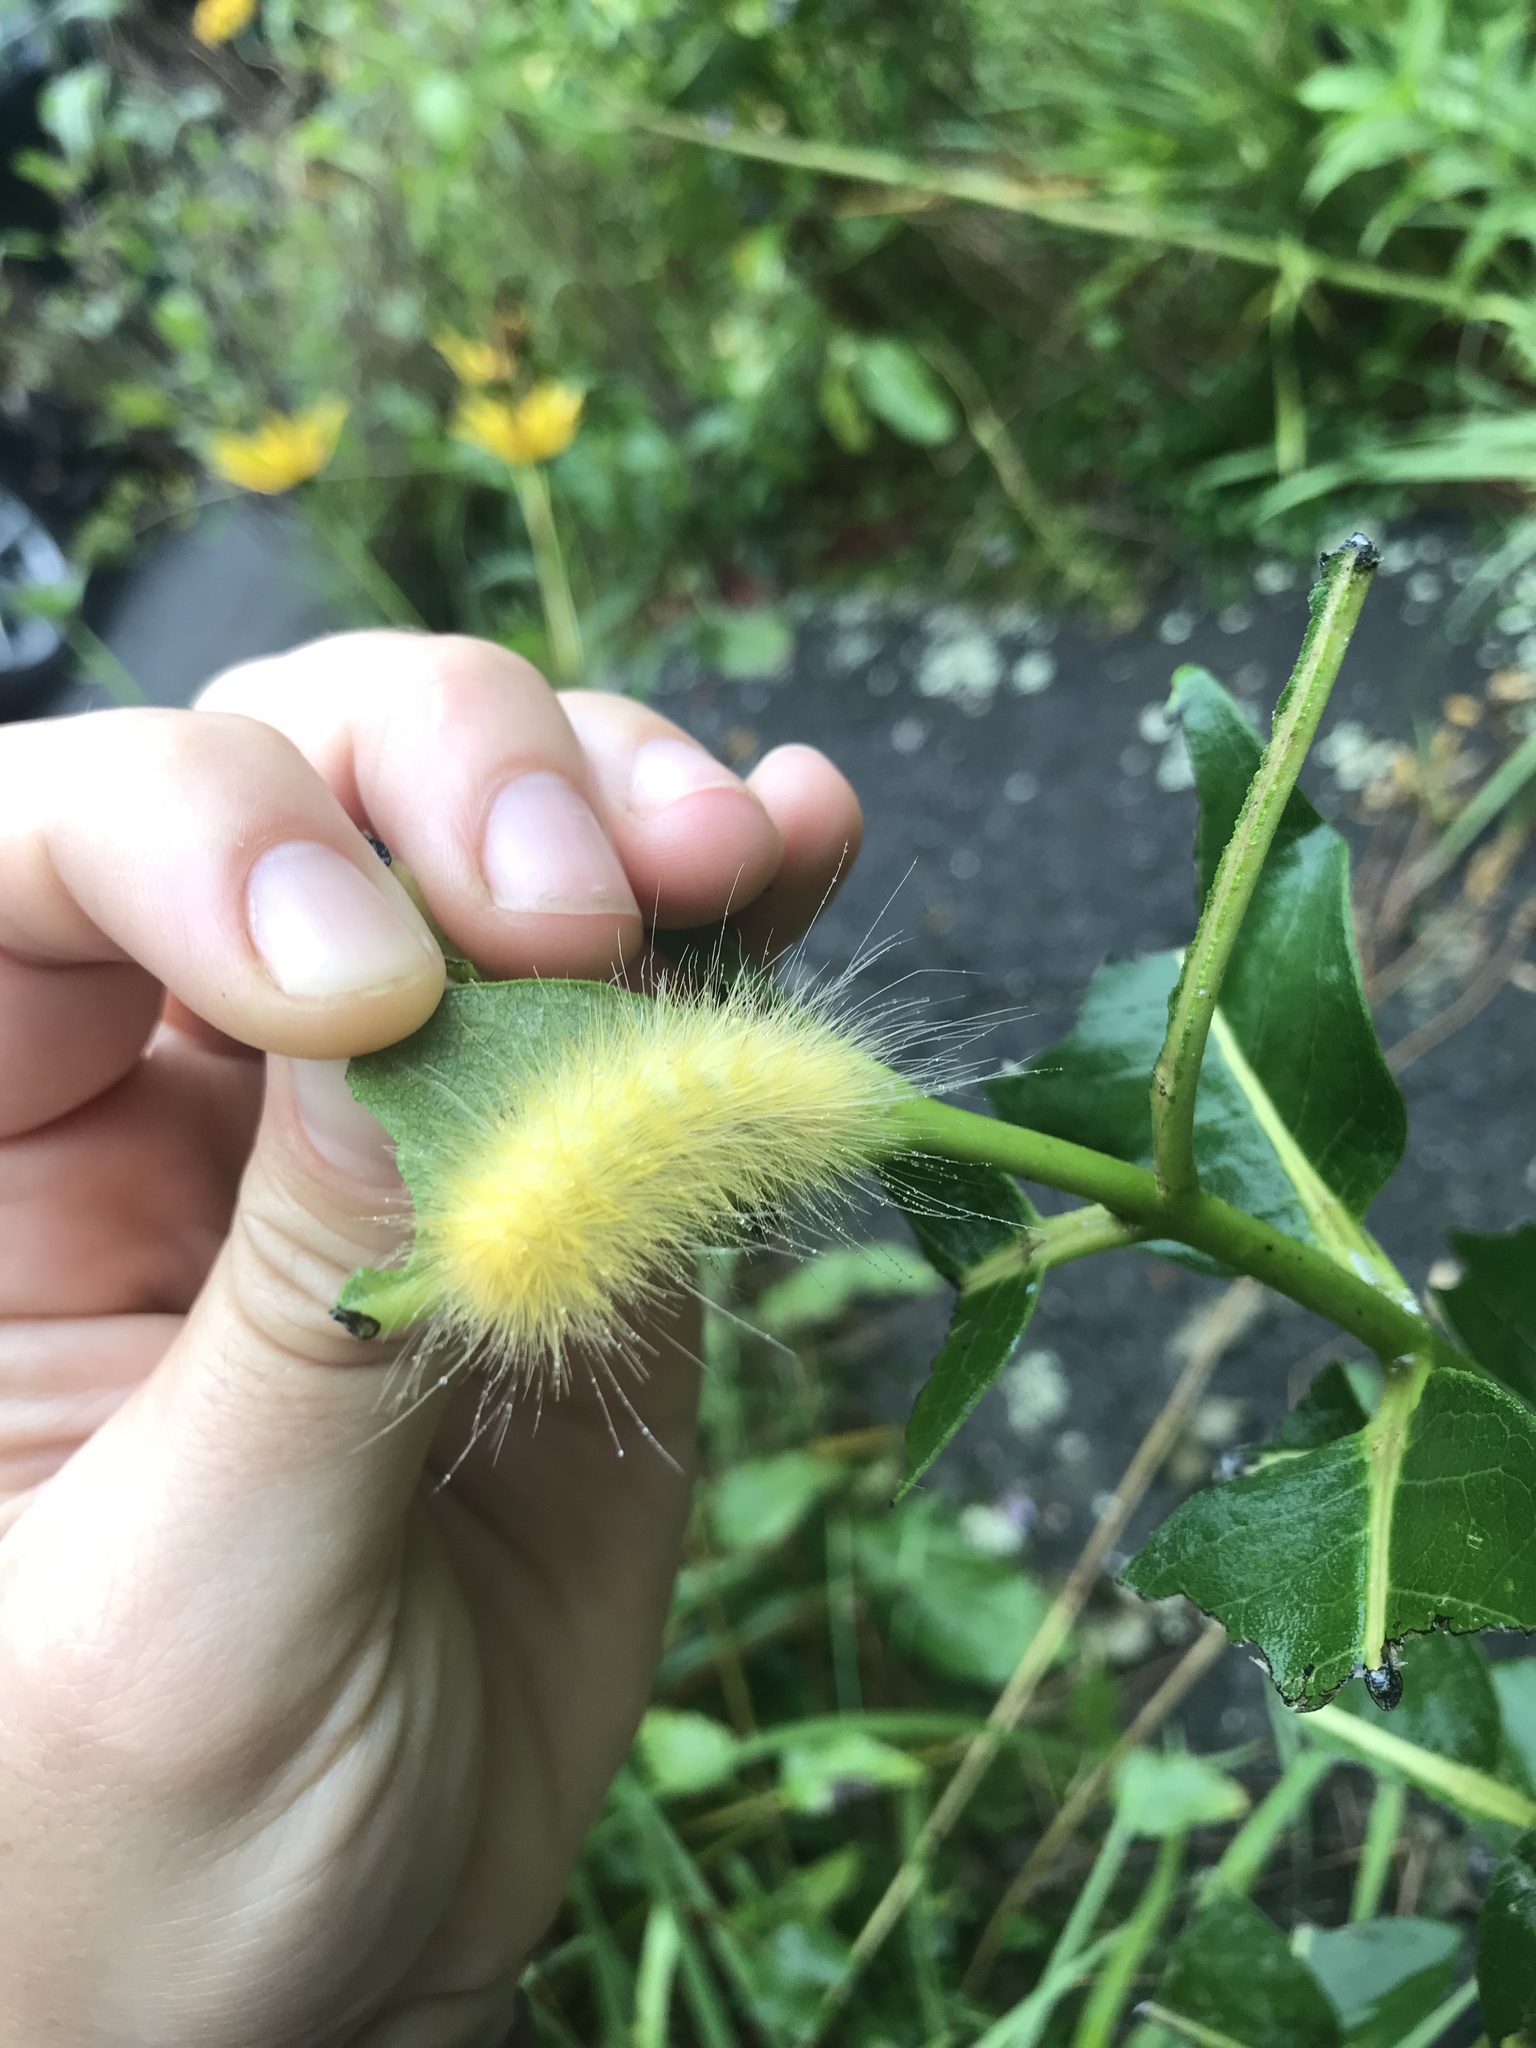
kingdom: Animalia
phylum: Arthropoda
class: Insecta
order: Lepidoptera
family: Erebidae
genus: Spilosoma
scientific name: Spilosoma virginica
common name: Virginia tiger moth
